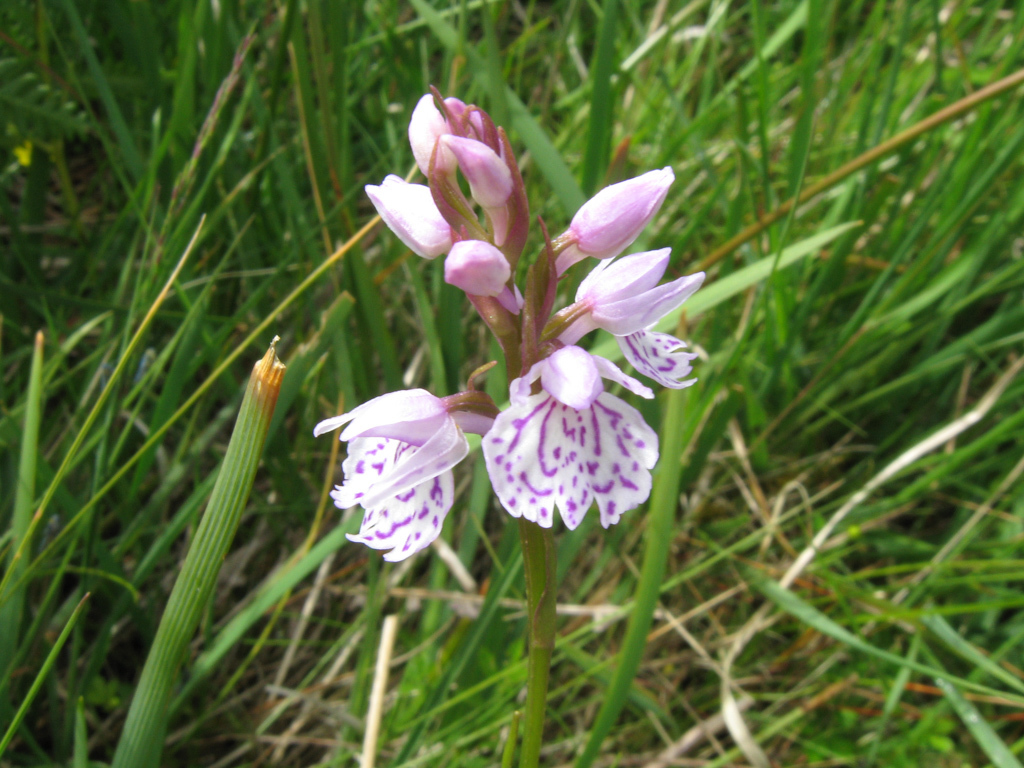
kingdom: Plantae
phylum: Tracheophyta
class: Liliopsida
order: Asparagales
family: Orchidaceae
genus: Dactylorhiza
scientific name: Dactylorhiza maculata
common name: Heath spotted-orchid
